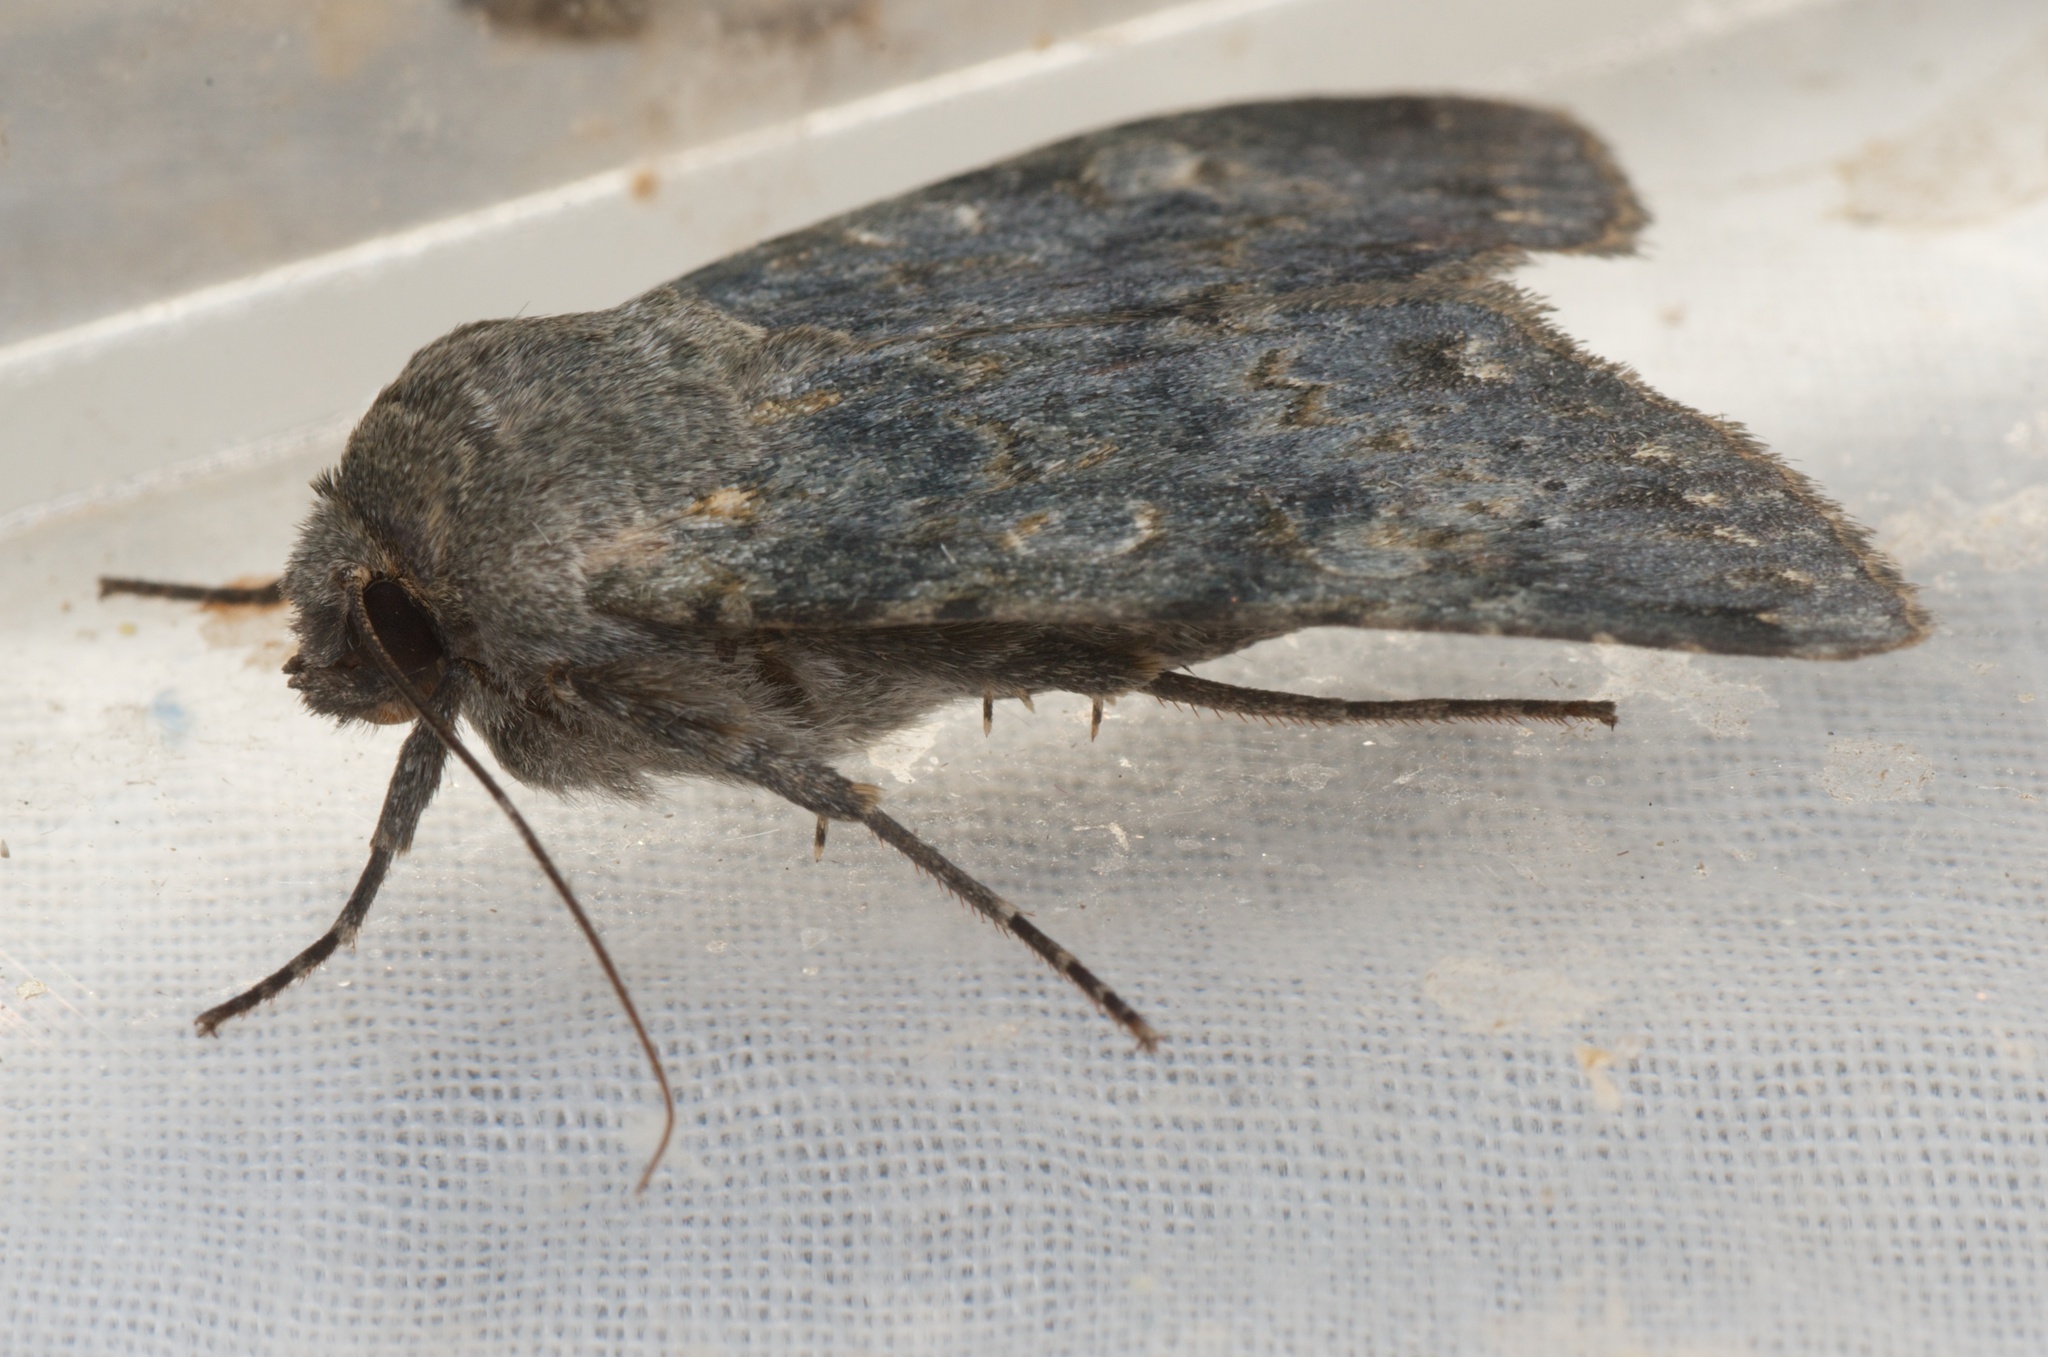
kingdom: Animalia
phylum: Arthropoda
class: Insecta
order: Lepidoptera
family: Noctuidae
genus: Ichneutica
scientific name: Ichneutica
